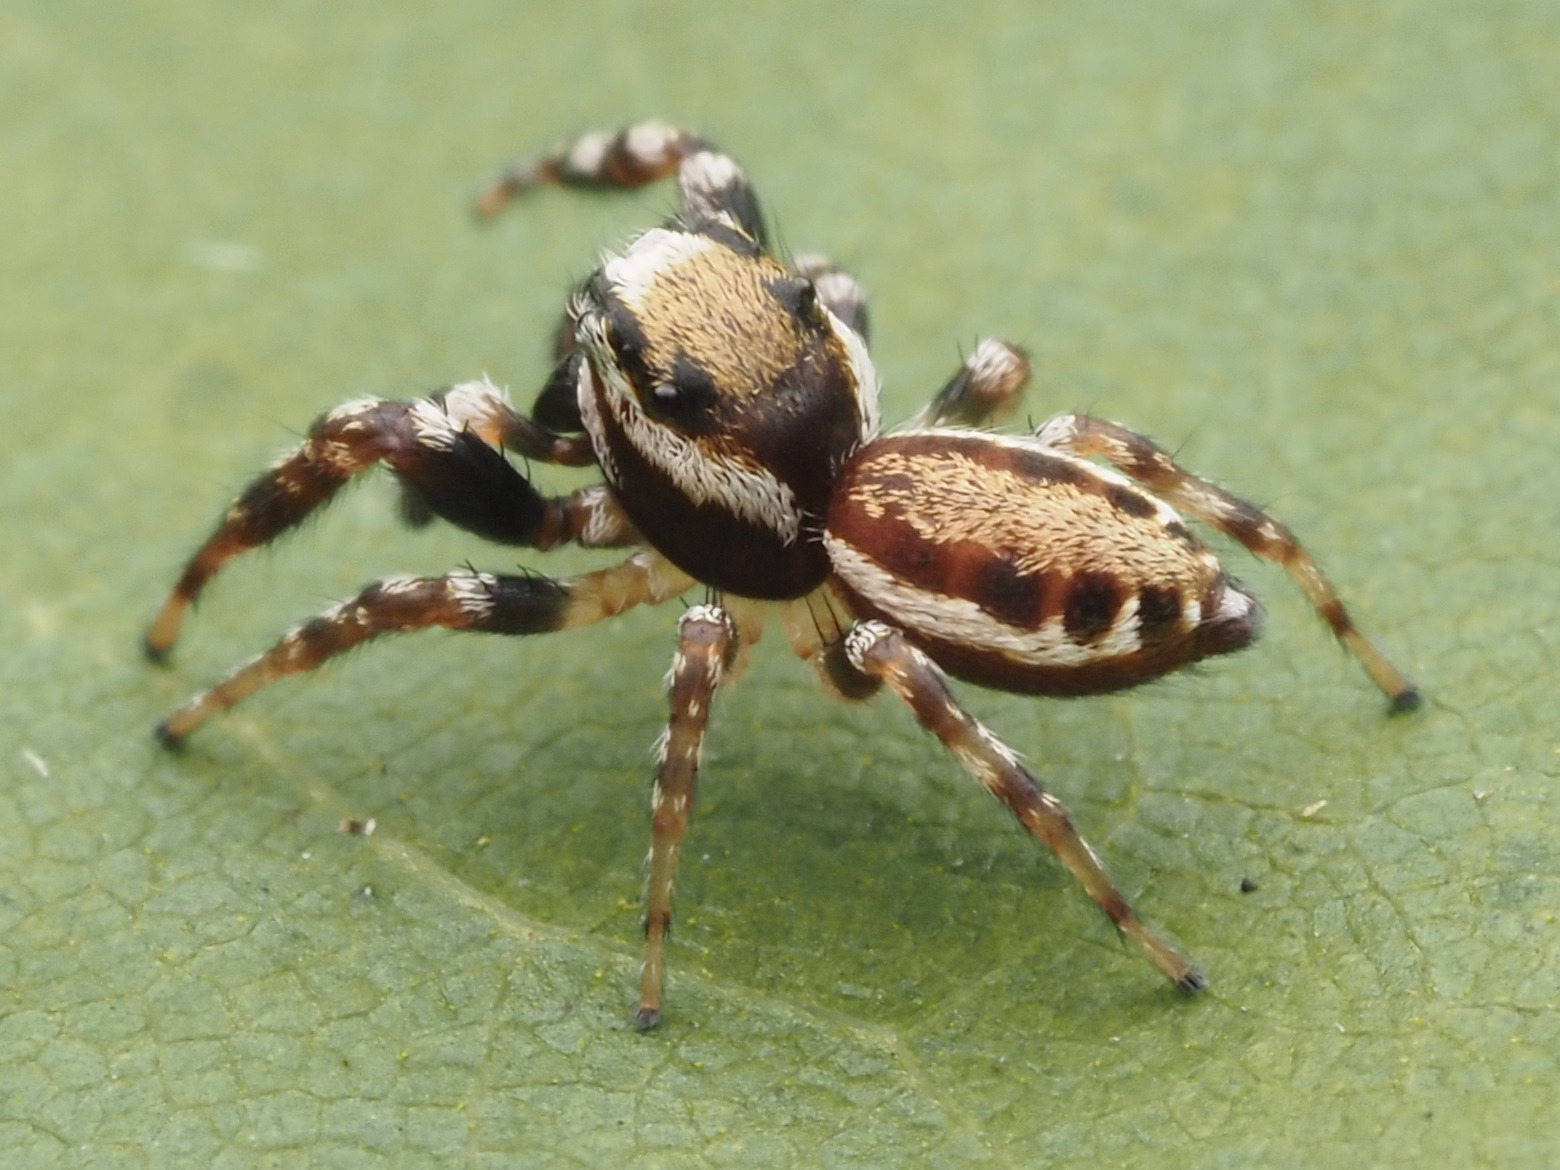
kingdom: Animalia
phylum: Arthropoda
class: Arachnida
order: Araneae
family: Salticidae
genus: Pelegrina
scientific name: Pelegrina proterva
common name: Common white-cheeked jumping spider
